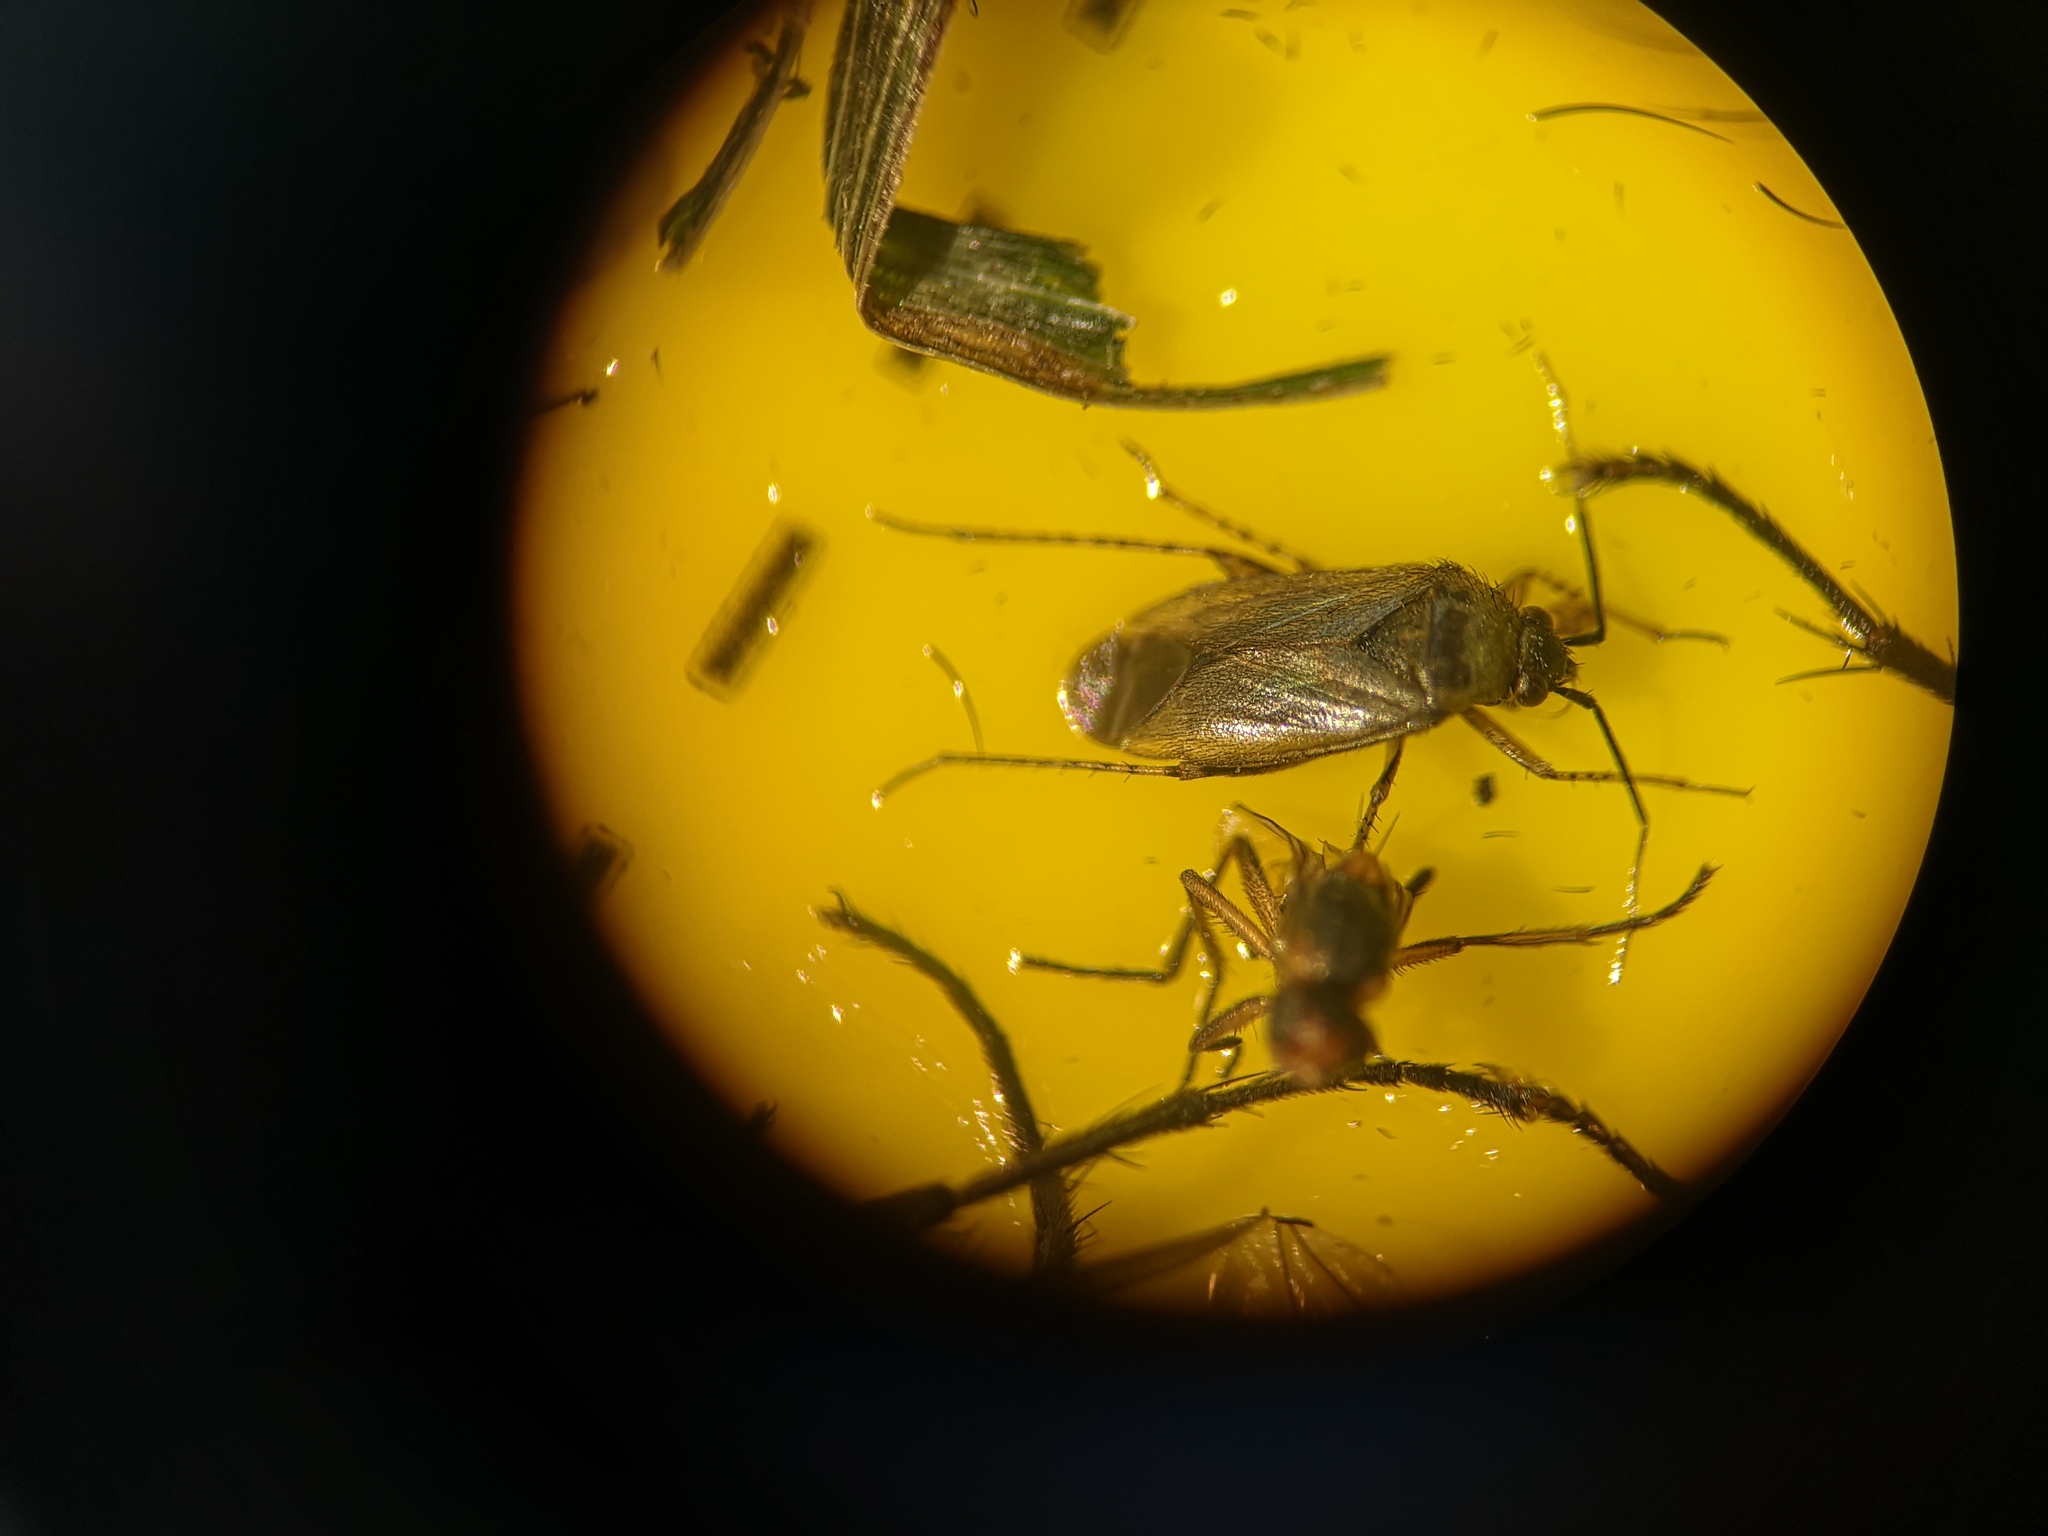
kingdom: Animalia
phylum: Arthropoda
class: Insecta
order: Hemiptera
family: Miridae
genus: Plagiognathus
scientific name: Plagiognathus arbustorum
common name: Plant bug
